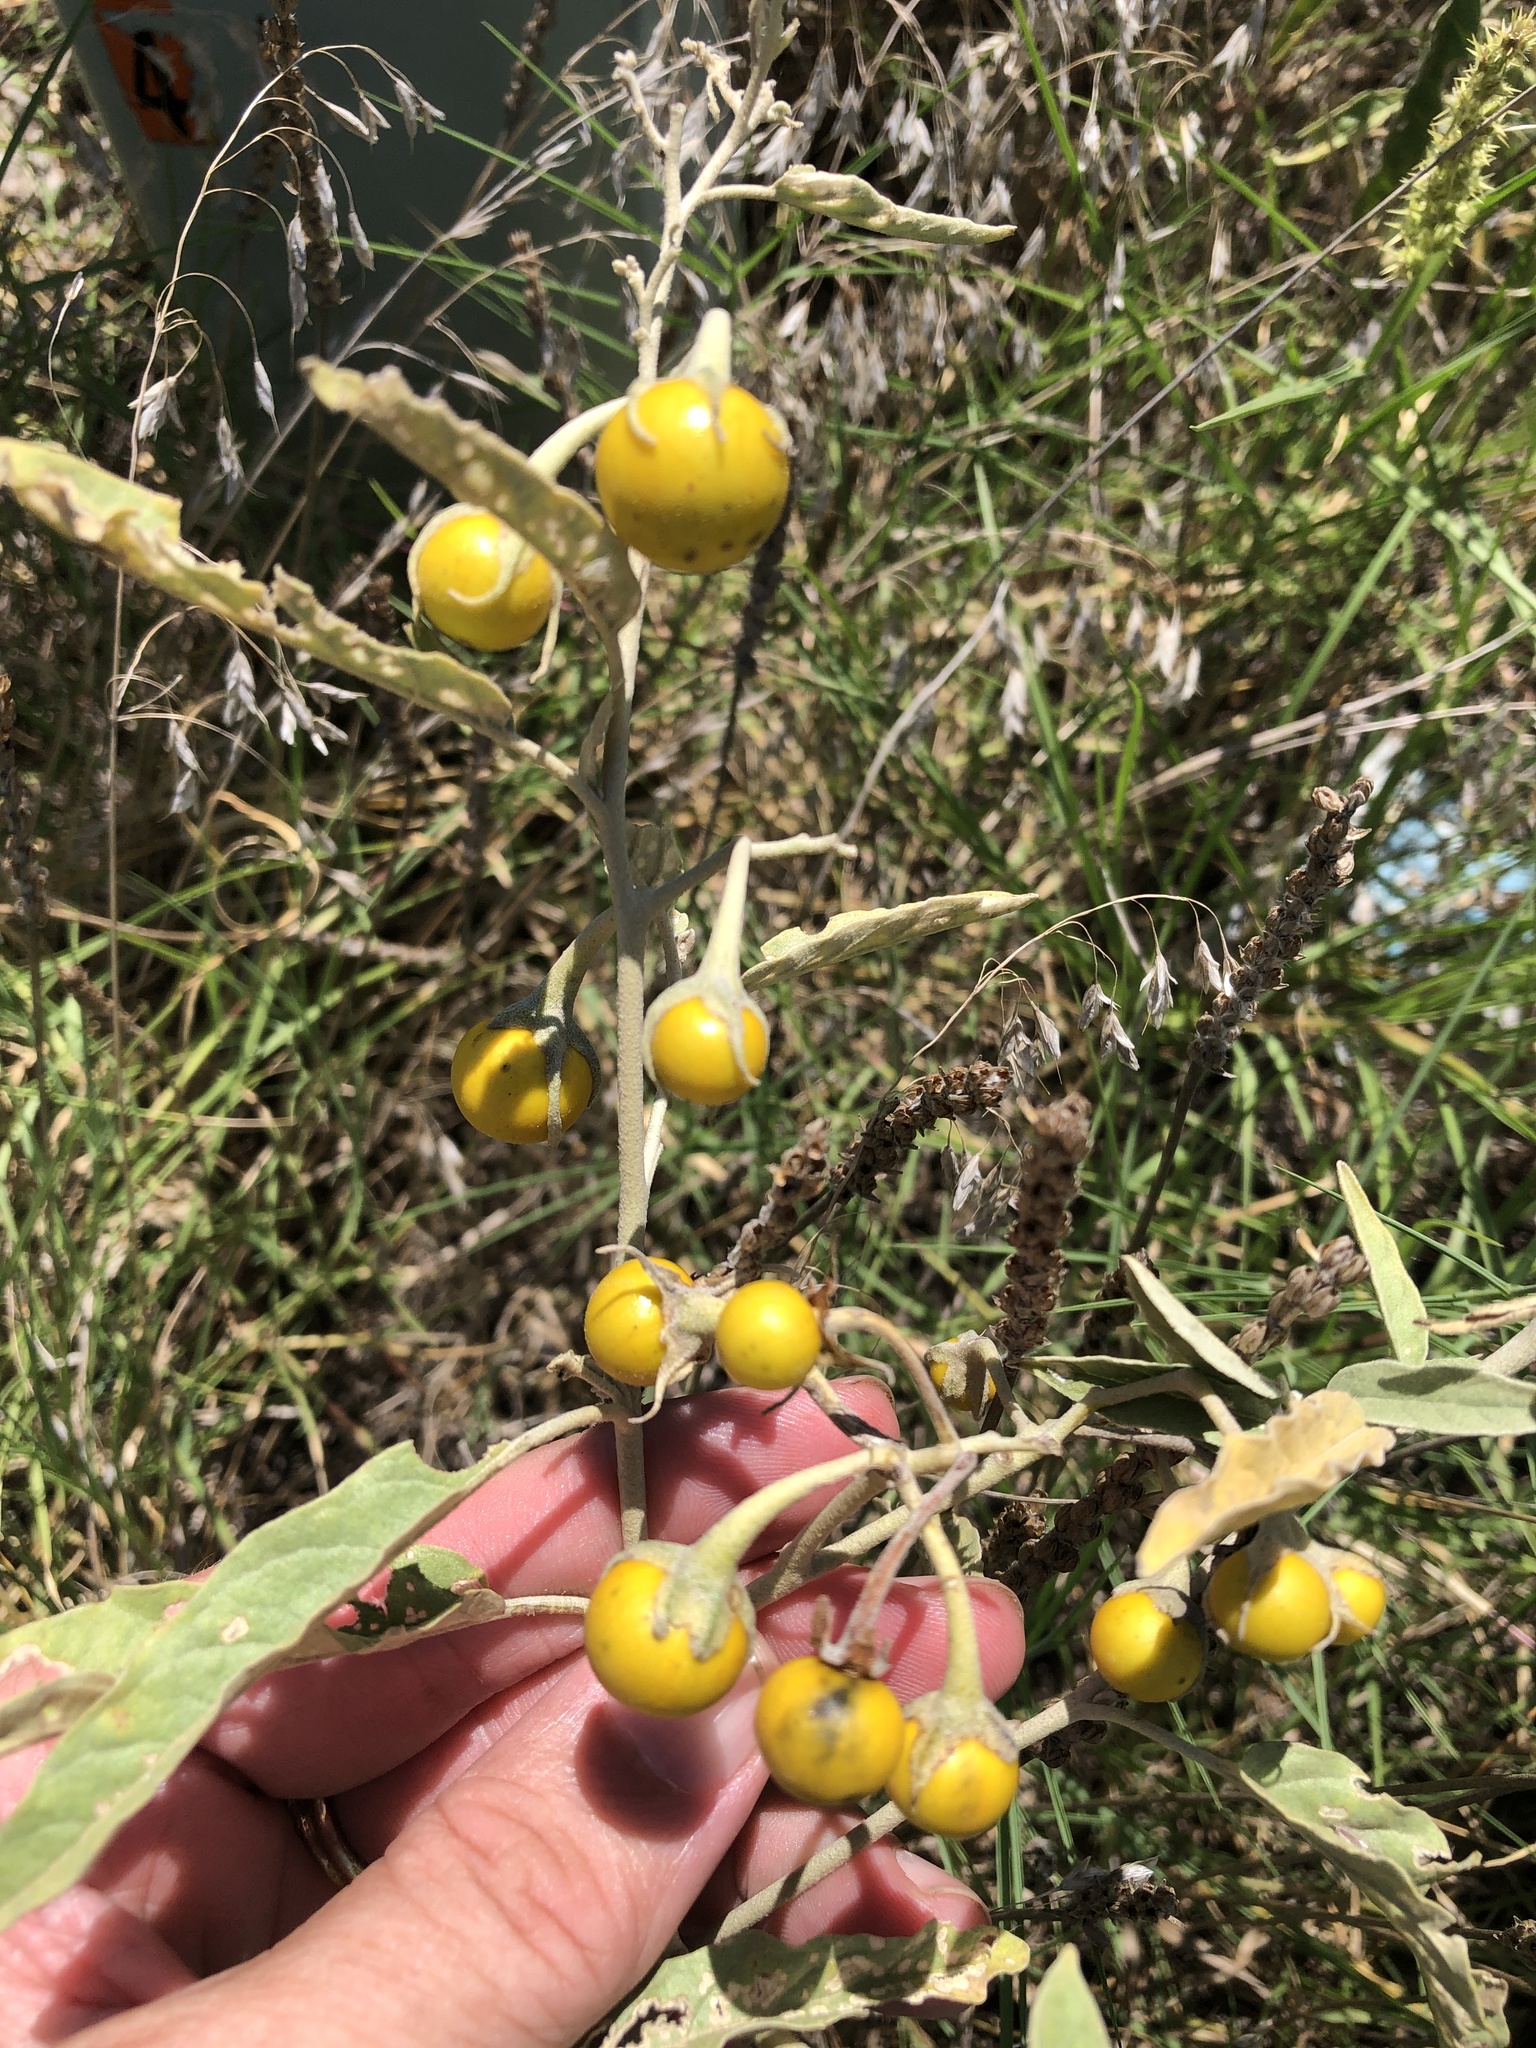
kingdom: Plantae
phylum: Tracheophyta
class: Magnoliopsida
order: Solanales
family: Solanaceae
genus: Solanum
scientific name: Solanum elaeagnifolium
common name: Silverleaf nightshade
